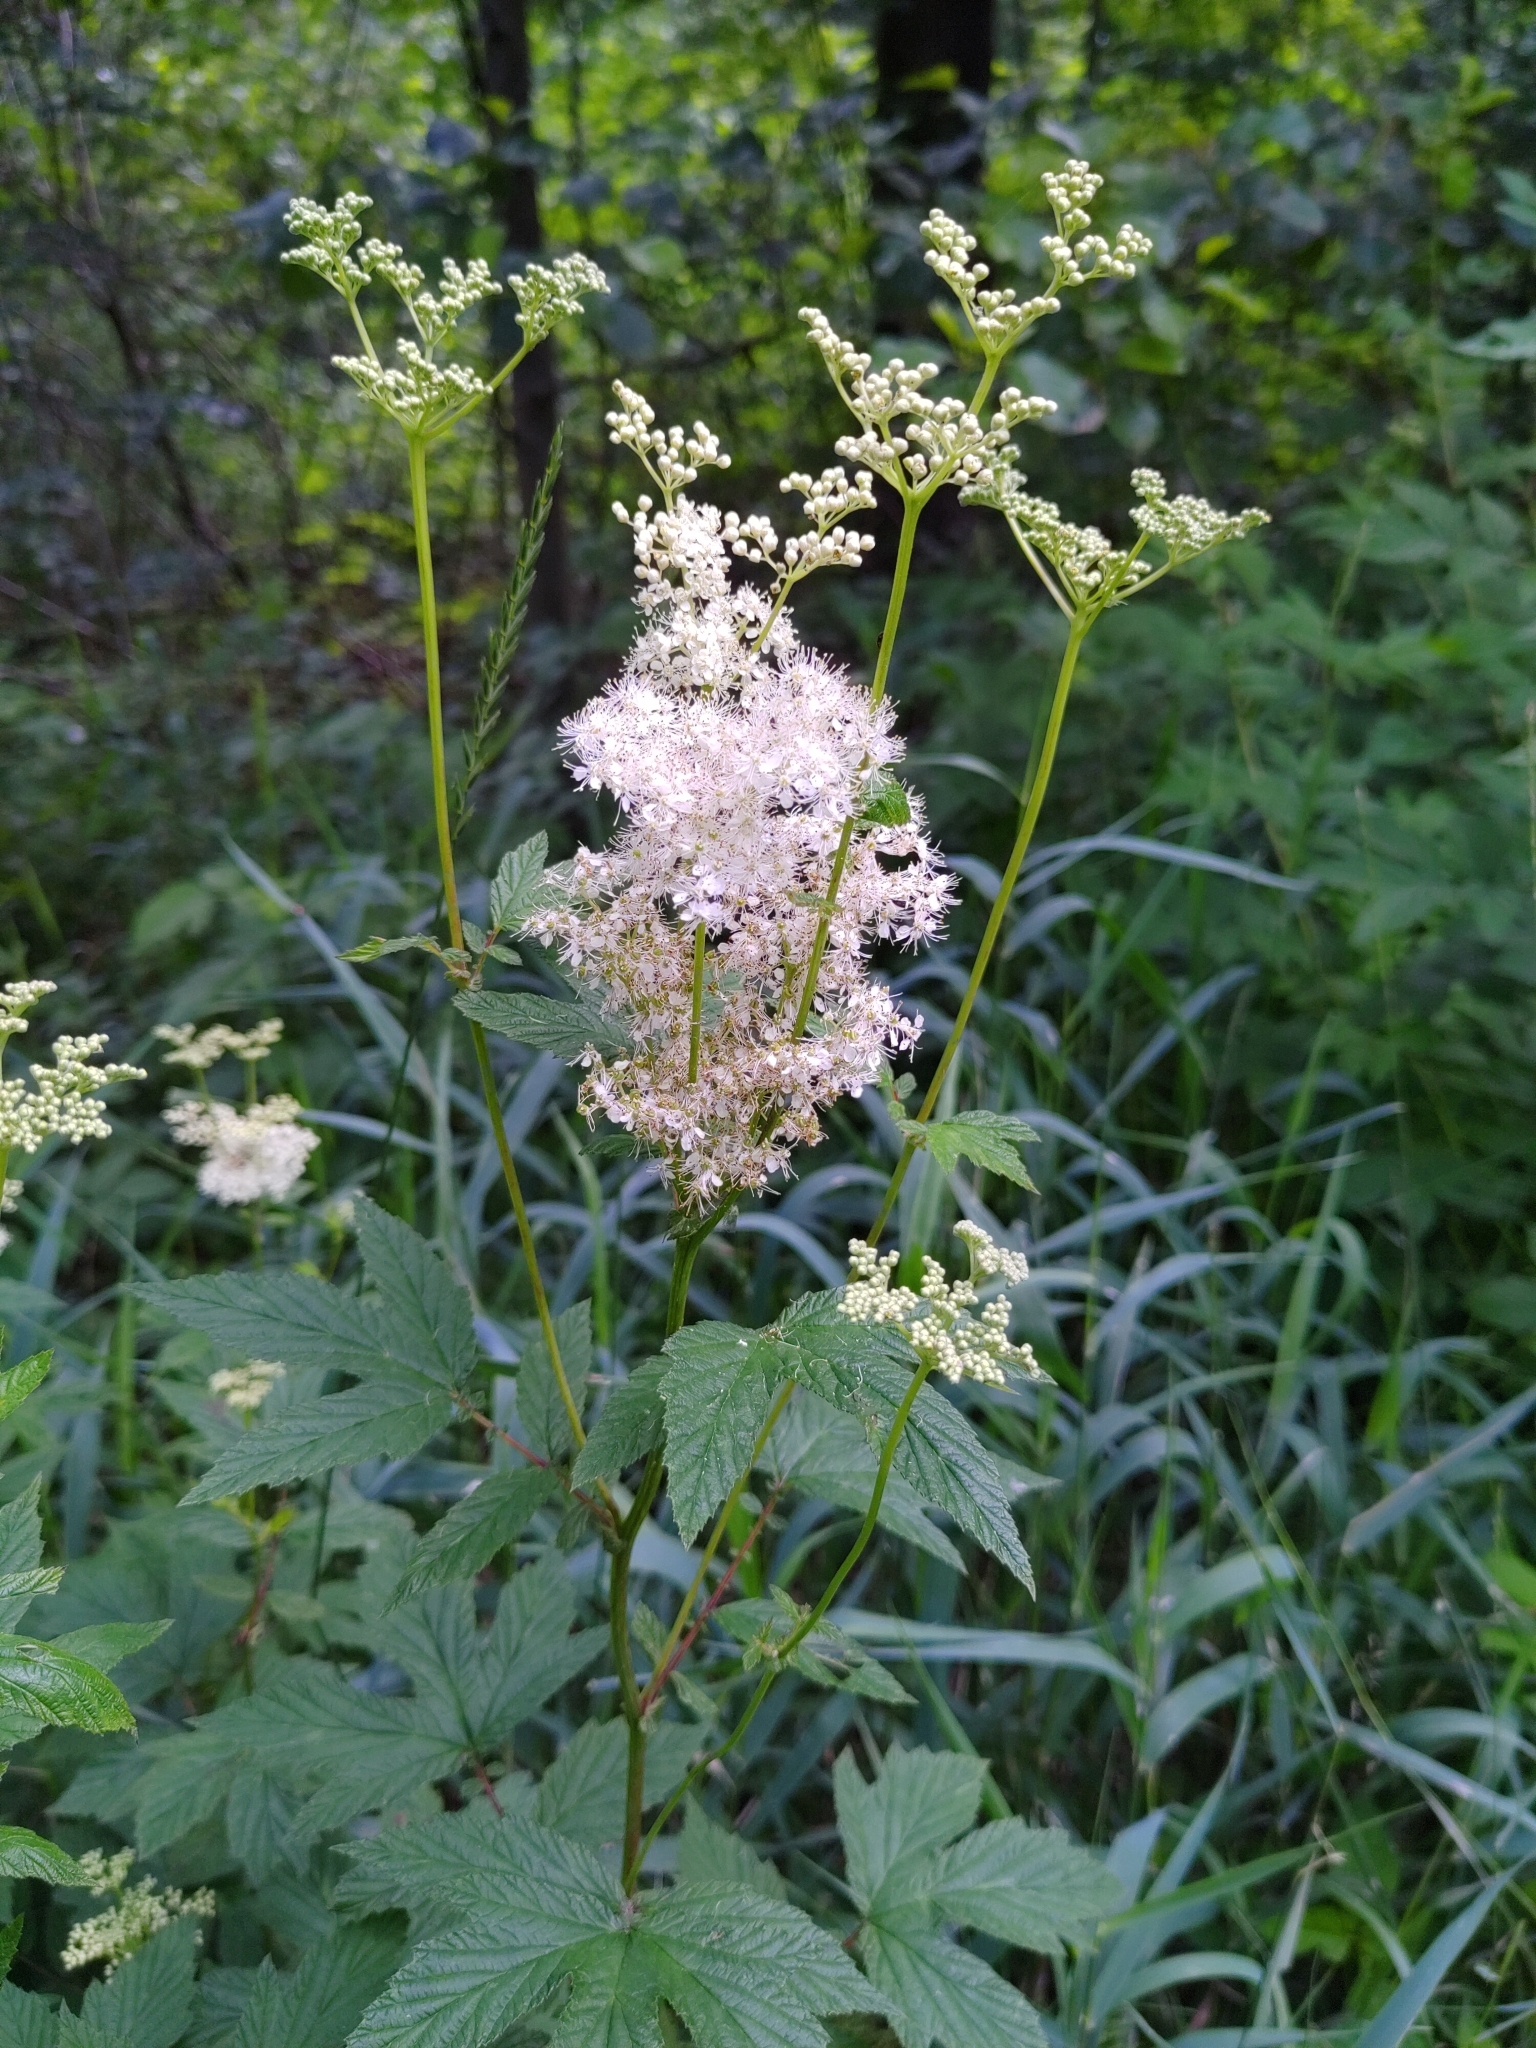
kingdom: Plantae
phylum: Tracheophyta
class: Magnoliopsida
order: Rosales
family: Rosaceae
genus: Filipendula
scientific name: Filipendula ulmaria
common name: Meadowsweet
